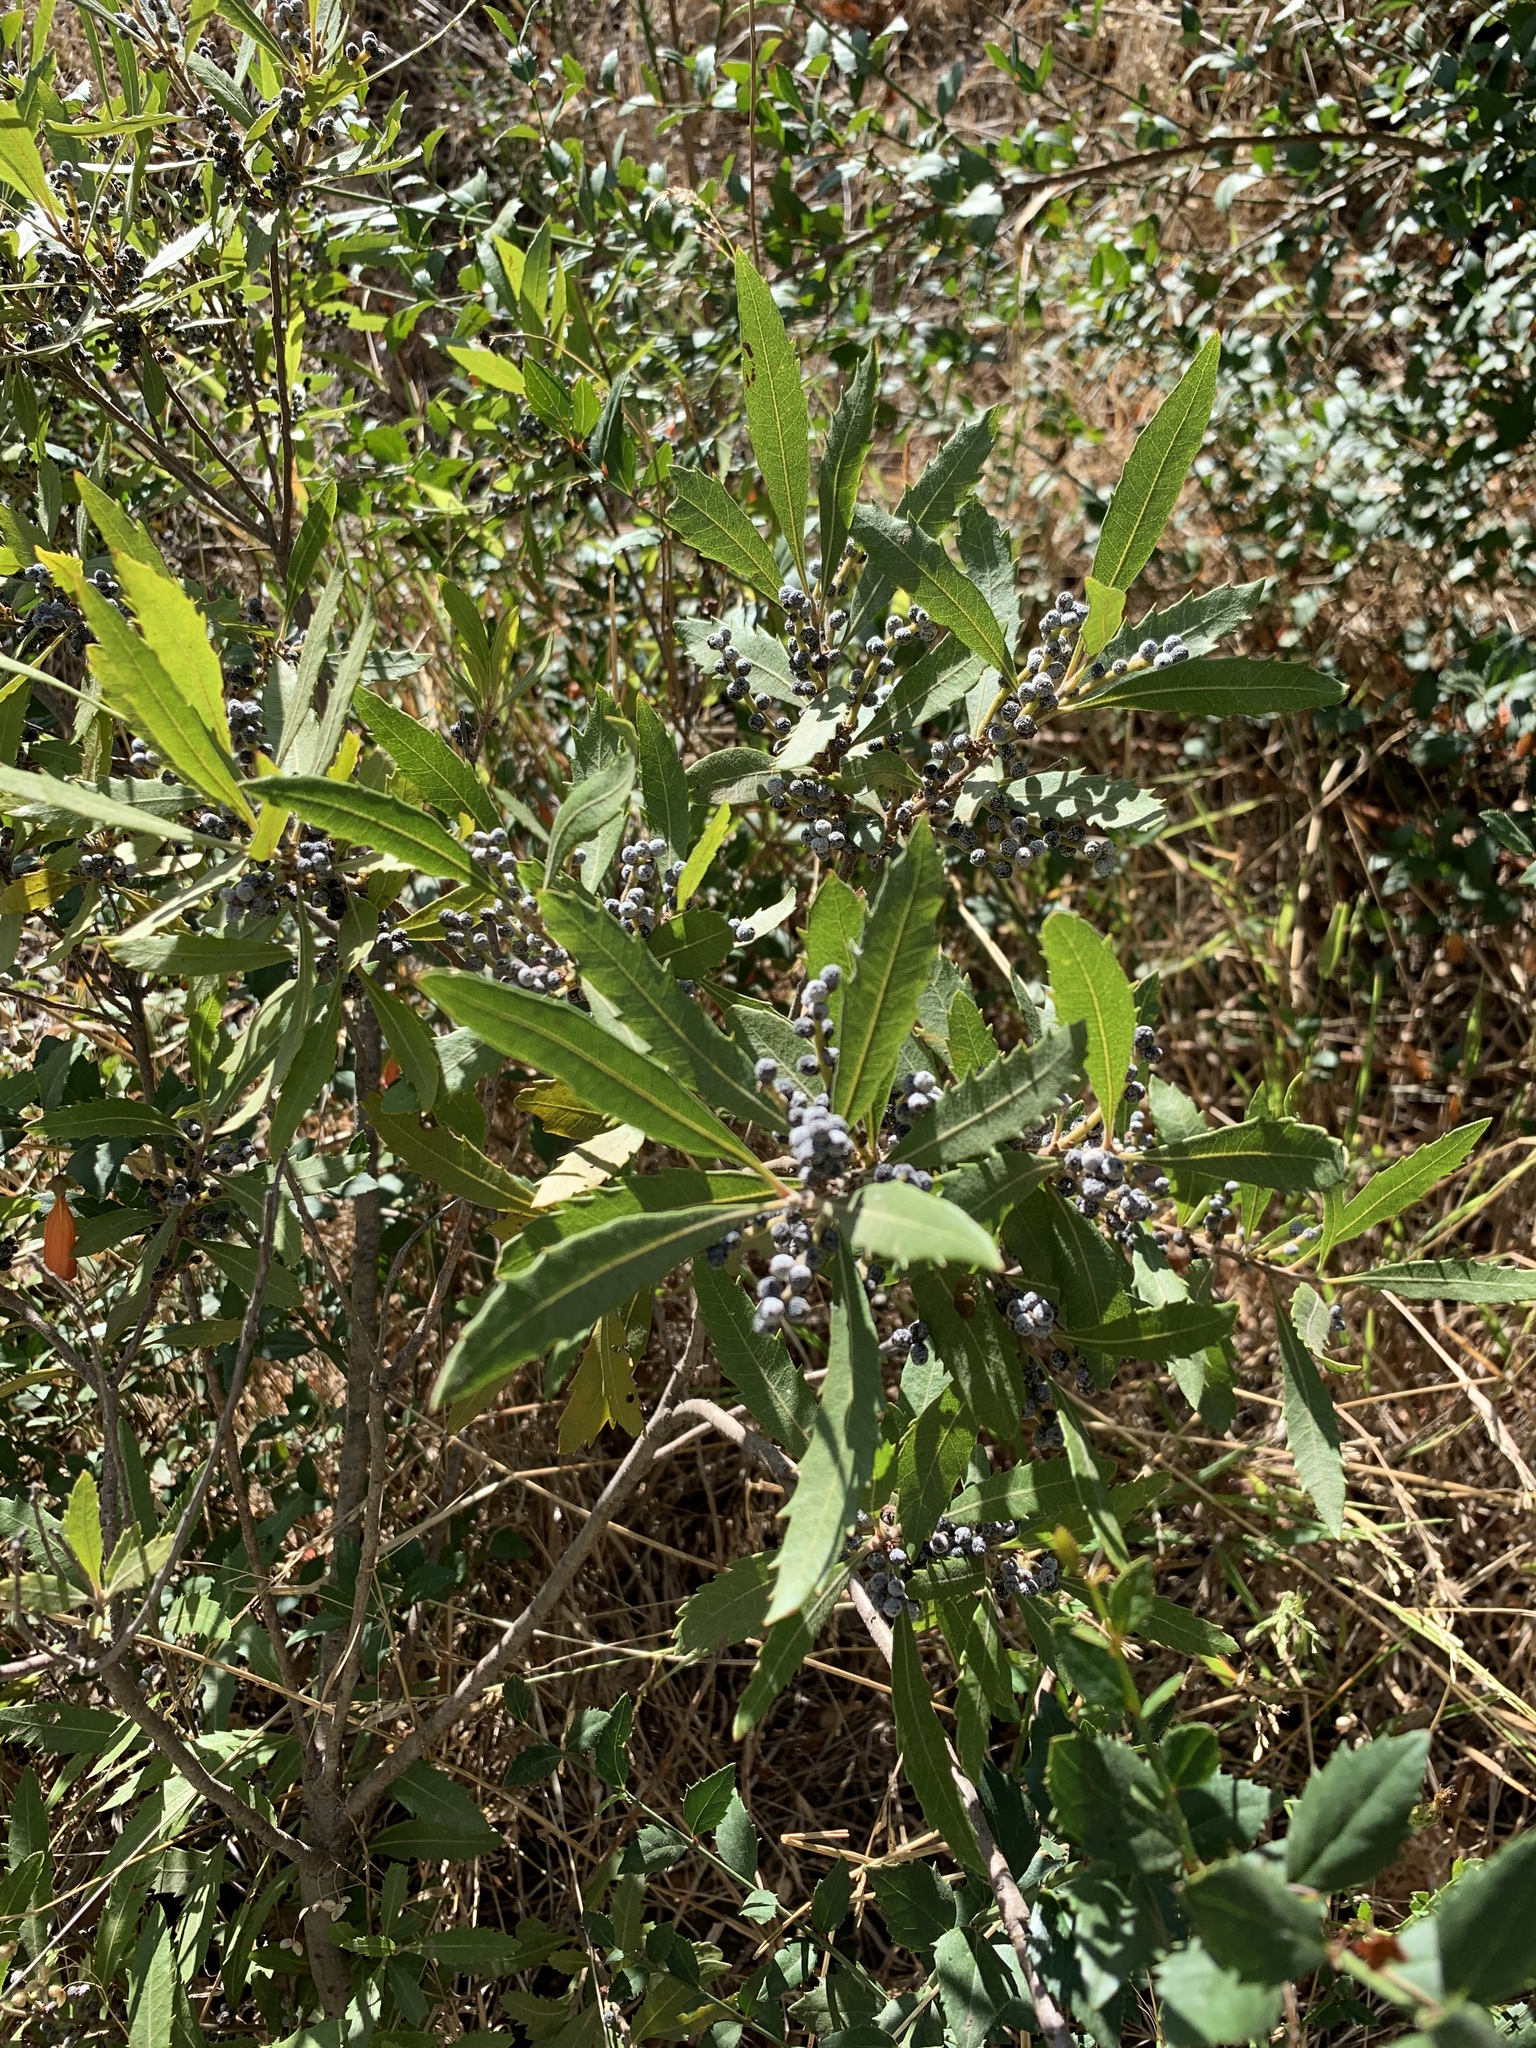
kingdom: Plantae
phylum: Tracheophyta
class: Magnoliopsida
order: Fagales
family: Myricaceae
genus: Morella
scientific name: Morella serrata
